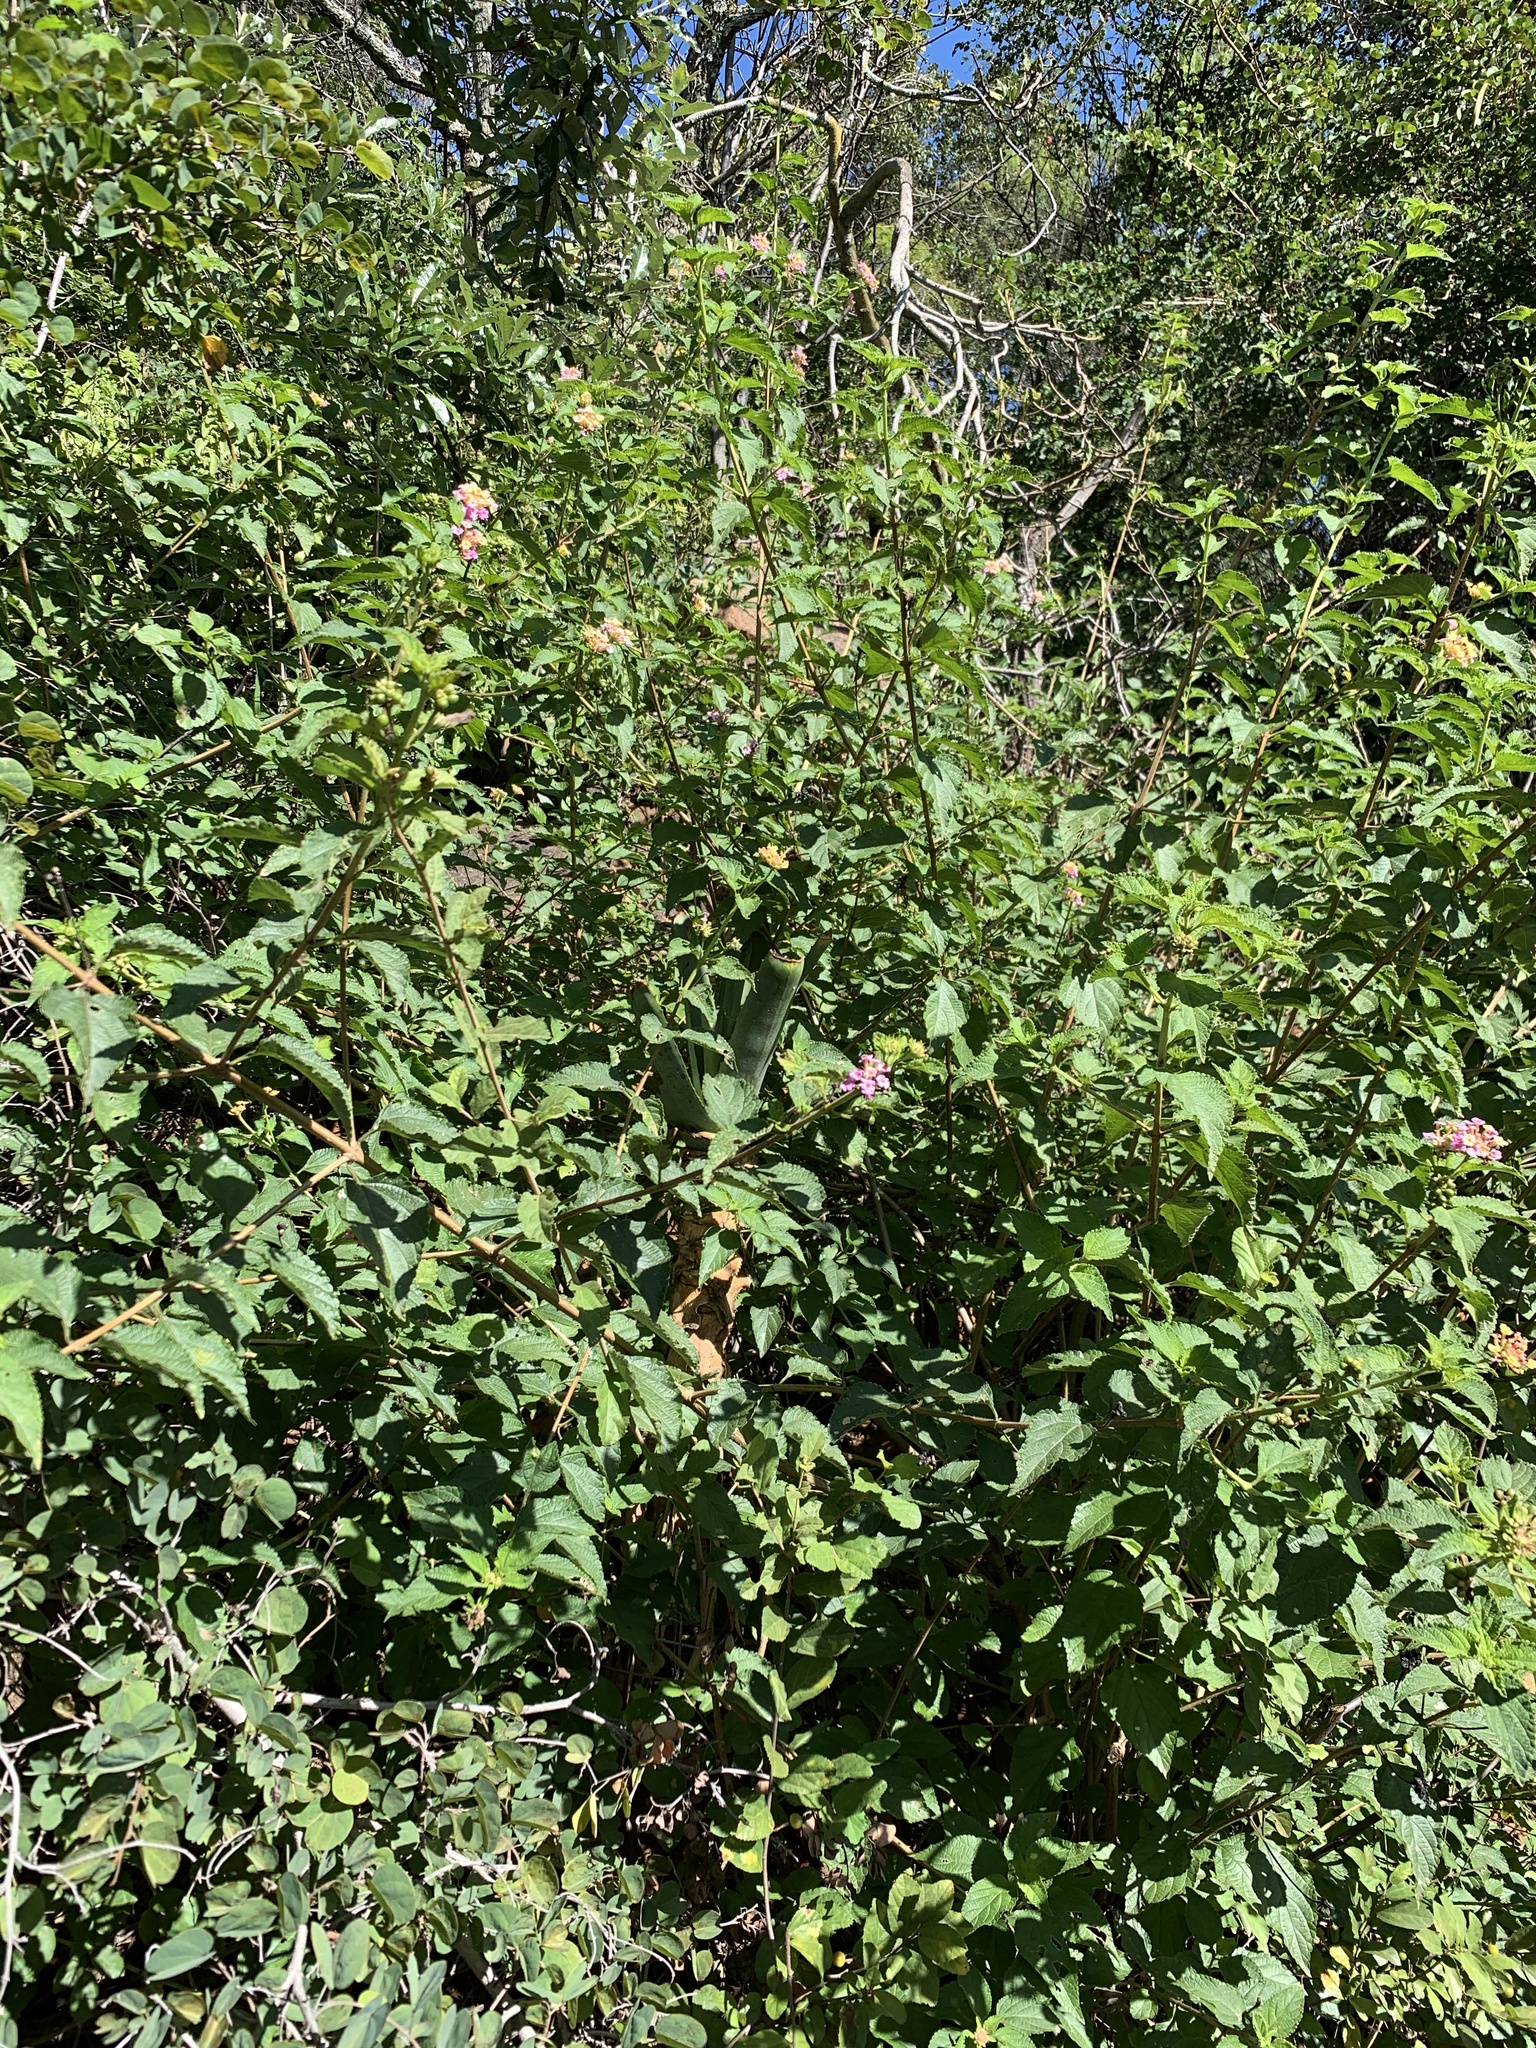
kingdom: Plantae
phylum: Tracheophyta
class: Magnoliopsida
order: Lamiales
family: Verbenaceae
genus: Lantana
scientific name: Lantana camara
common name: Lantana
